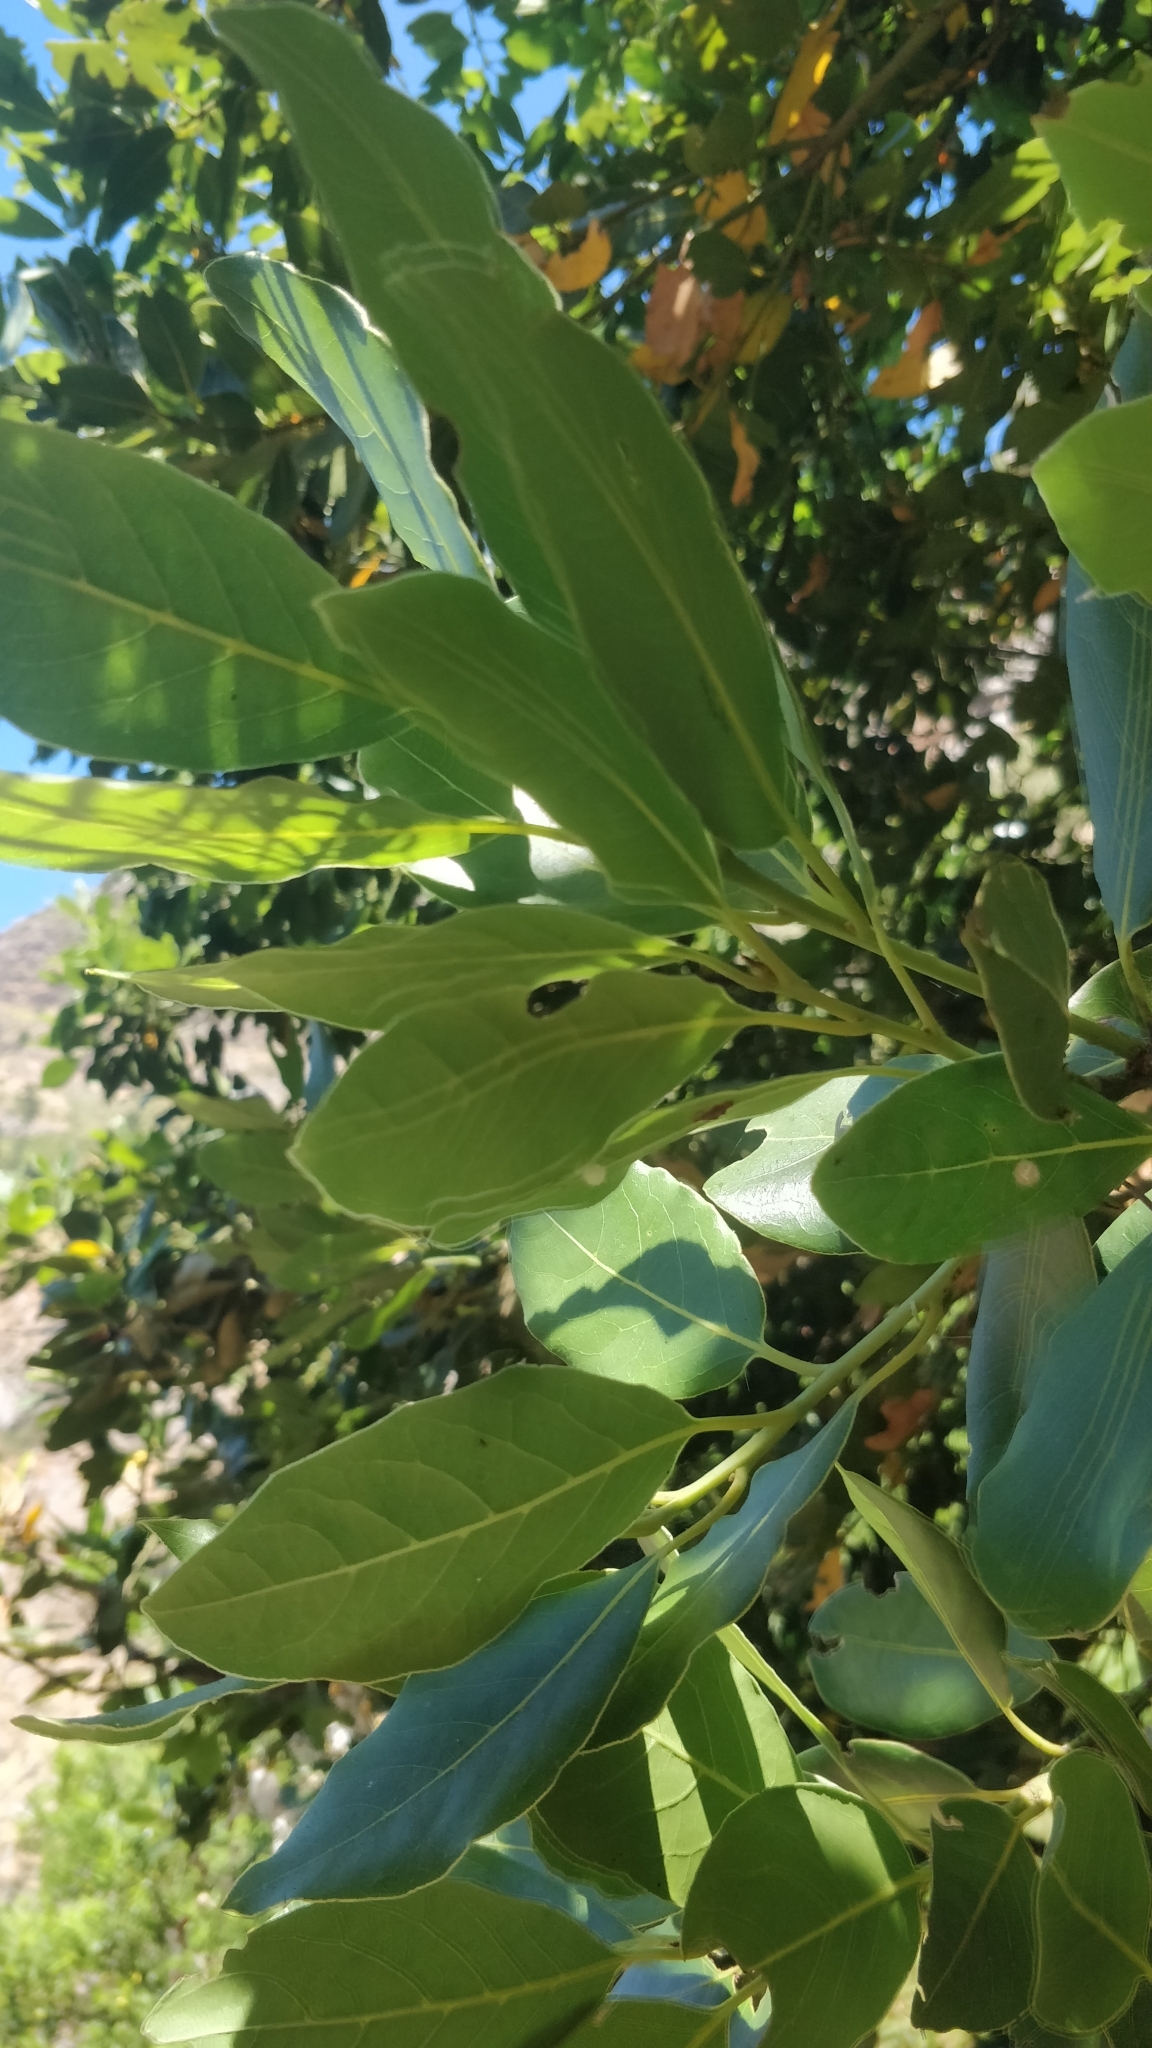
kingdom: Plantae
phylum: Tracheophyta
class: Magnoliopsida
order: Laurales
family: Lauraceae
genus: Laurus
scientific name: Laurus novocanariensis
